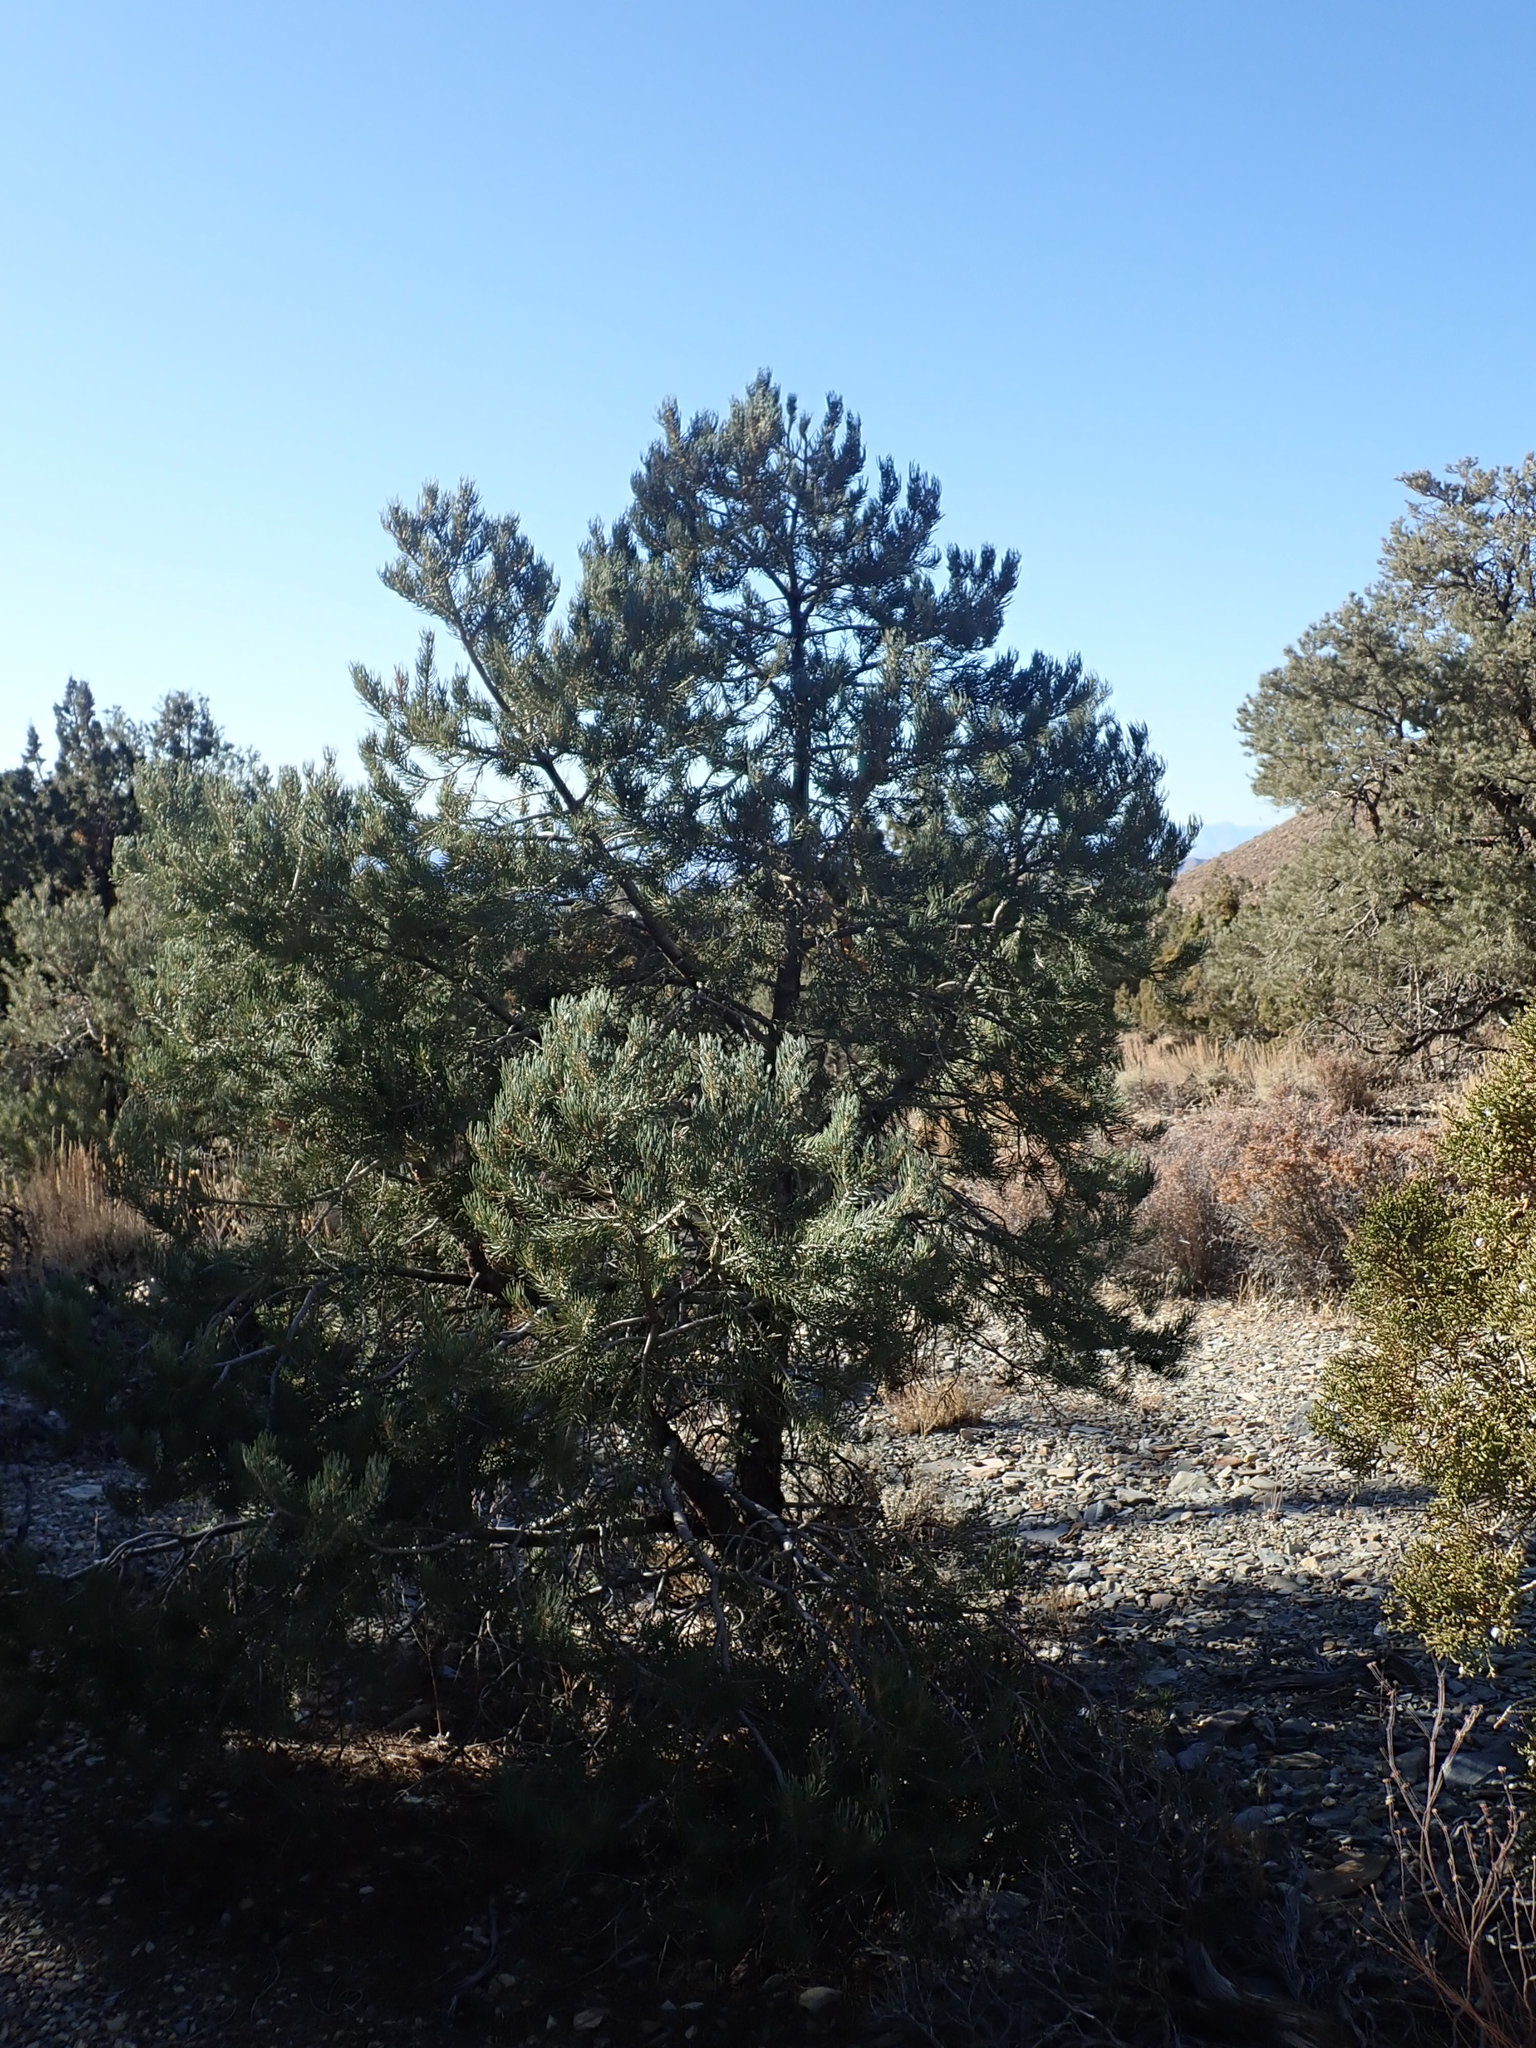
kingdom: Plantae
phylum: Tracheophyta
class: Pinopsida
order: Pinales
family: Pinaceae
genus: Pinus
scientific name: Pinus monophylla
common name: One-leaved nut pine
